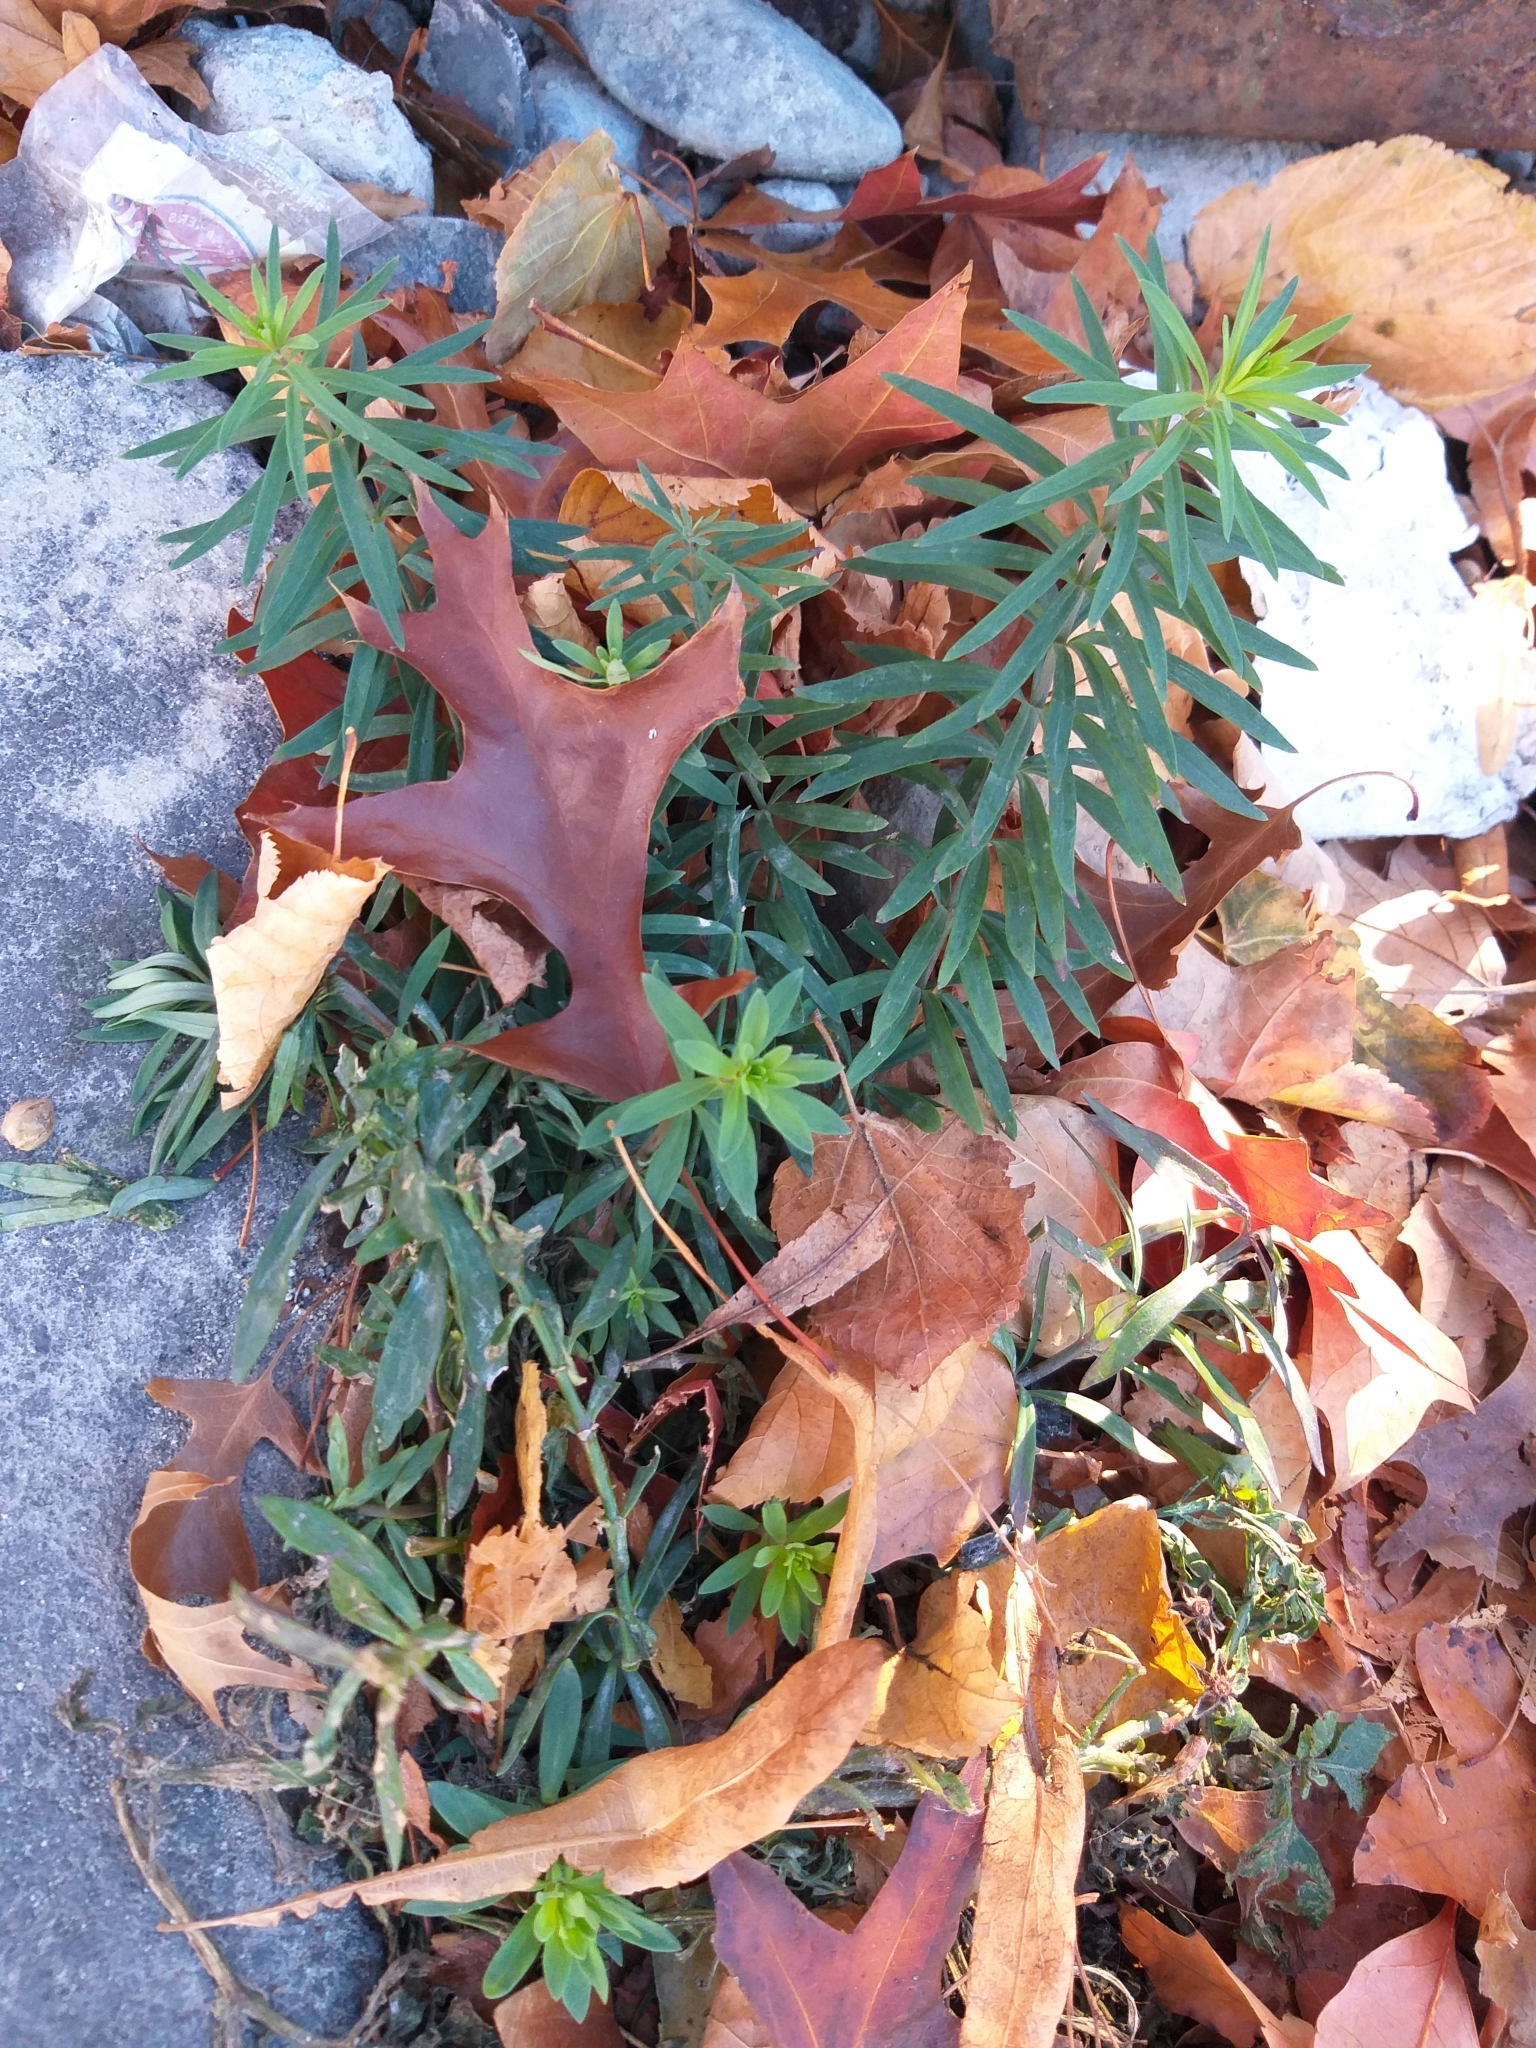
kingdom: Plantae
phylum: Tracheophyta
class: Magnoliopsida
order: Lamiales
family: Plantaginaceae
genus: Linaria
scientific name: Linaria purpurea
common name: Purple toadflax
